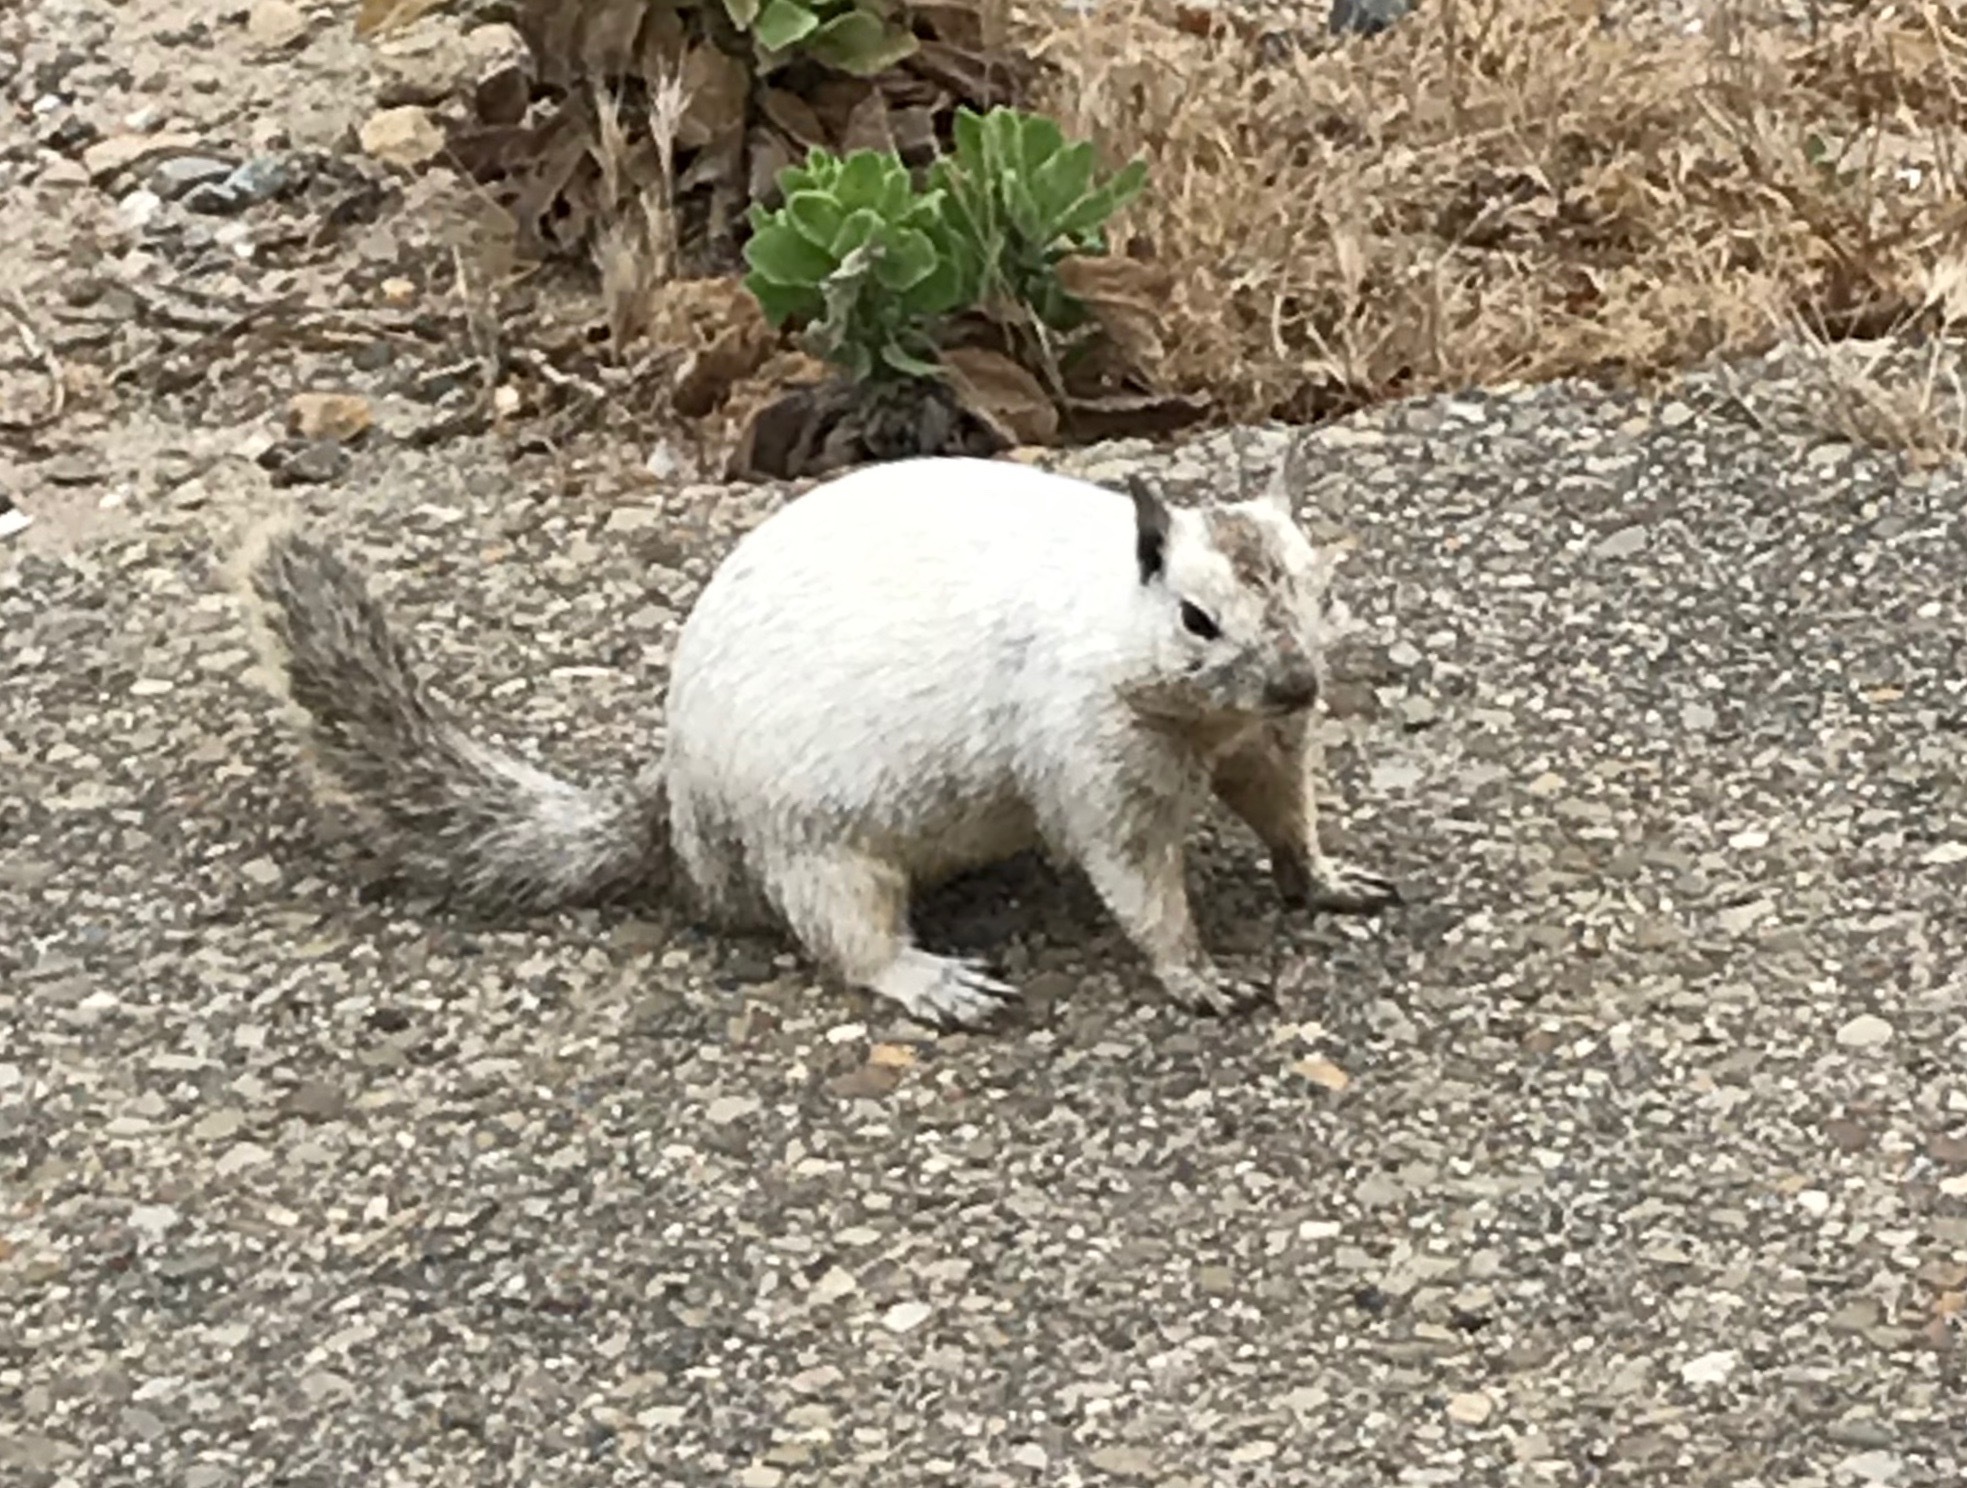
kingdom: Animalia
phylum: Chordata
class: Mammalia
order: Rodentia
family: Sciuridae
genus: Otospermophilus
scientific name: Otospermophilus beecheyi
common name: California ground squirrel
